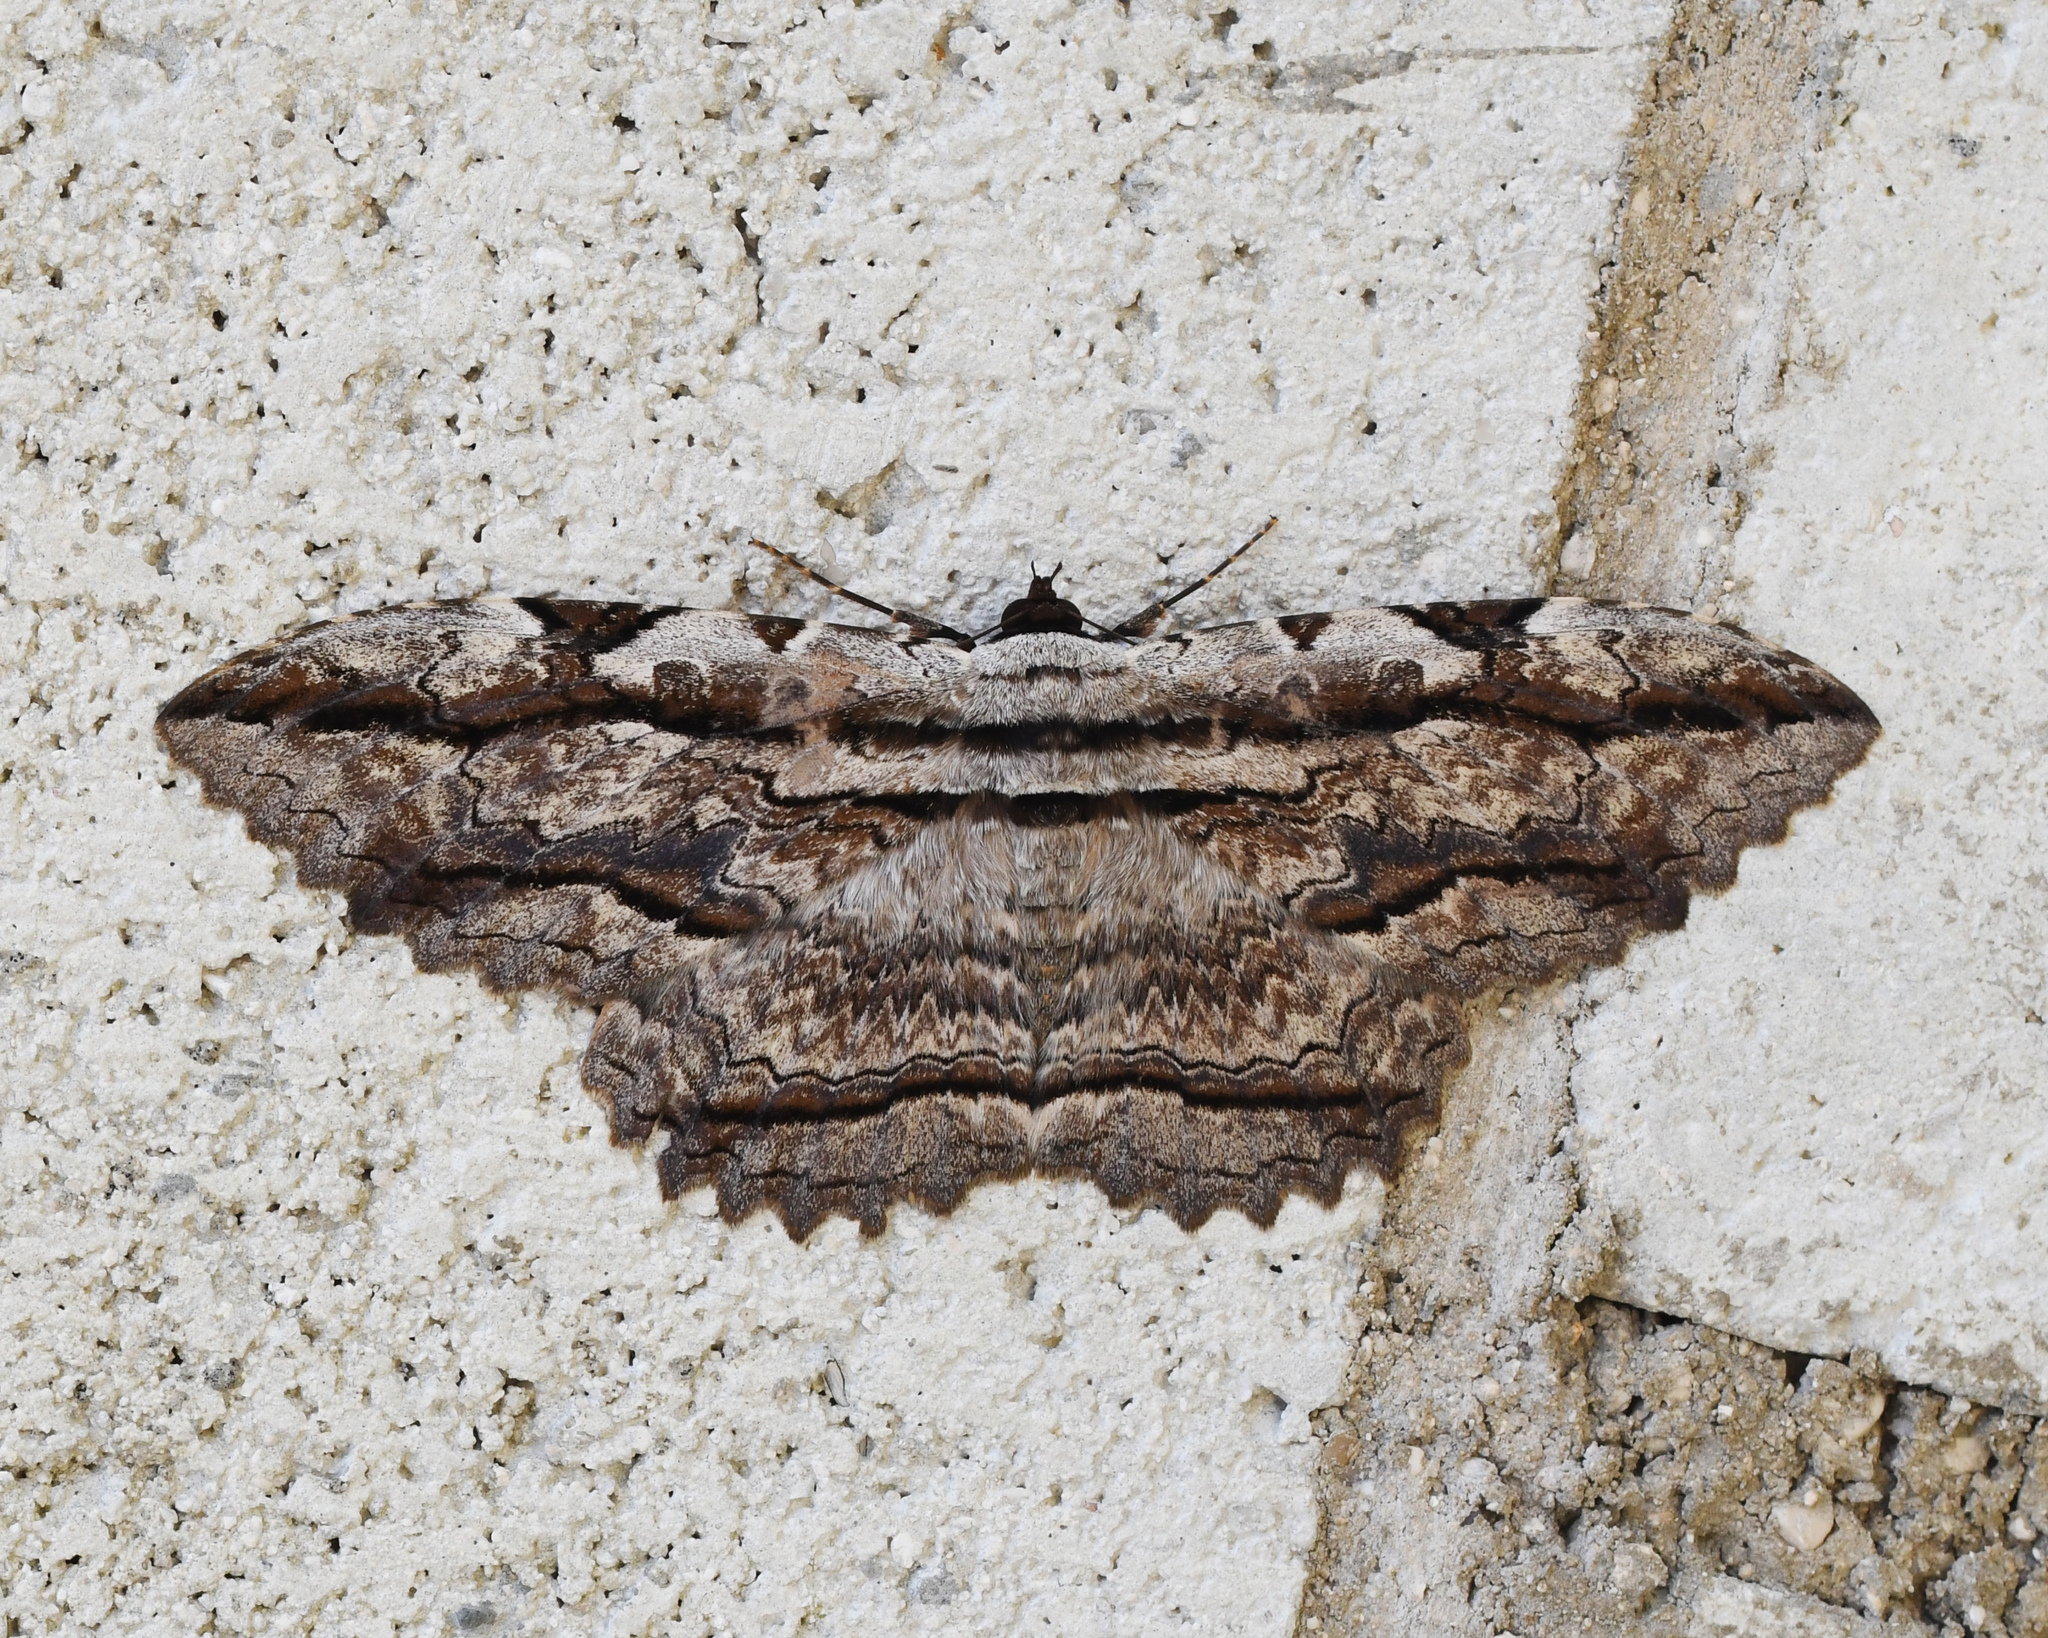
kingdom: Animalia
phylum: Arthropoda
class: Insecta
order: Lepidoptera
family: Erebidae
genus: Thysania
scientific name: Thysania zenobia
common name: Owl moth
